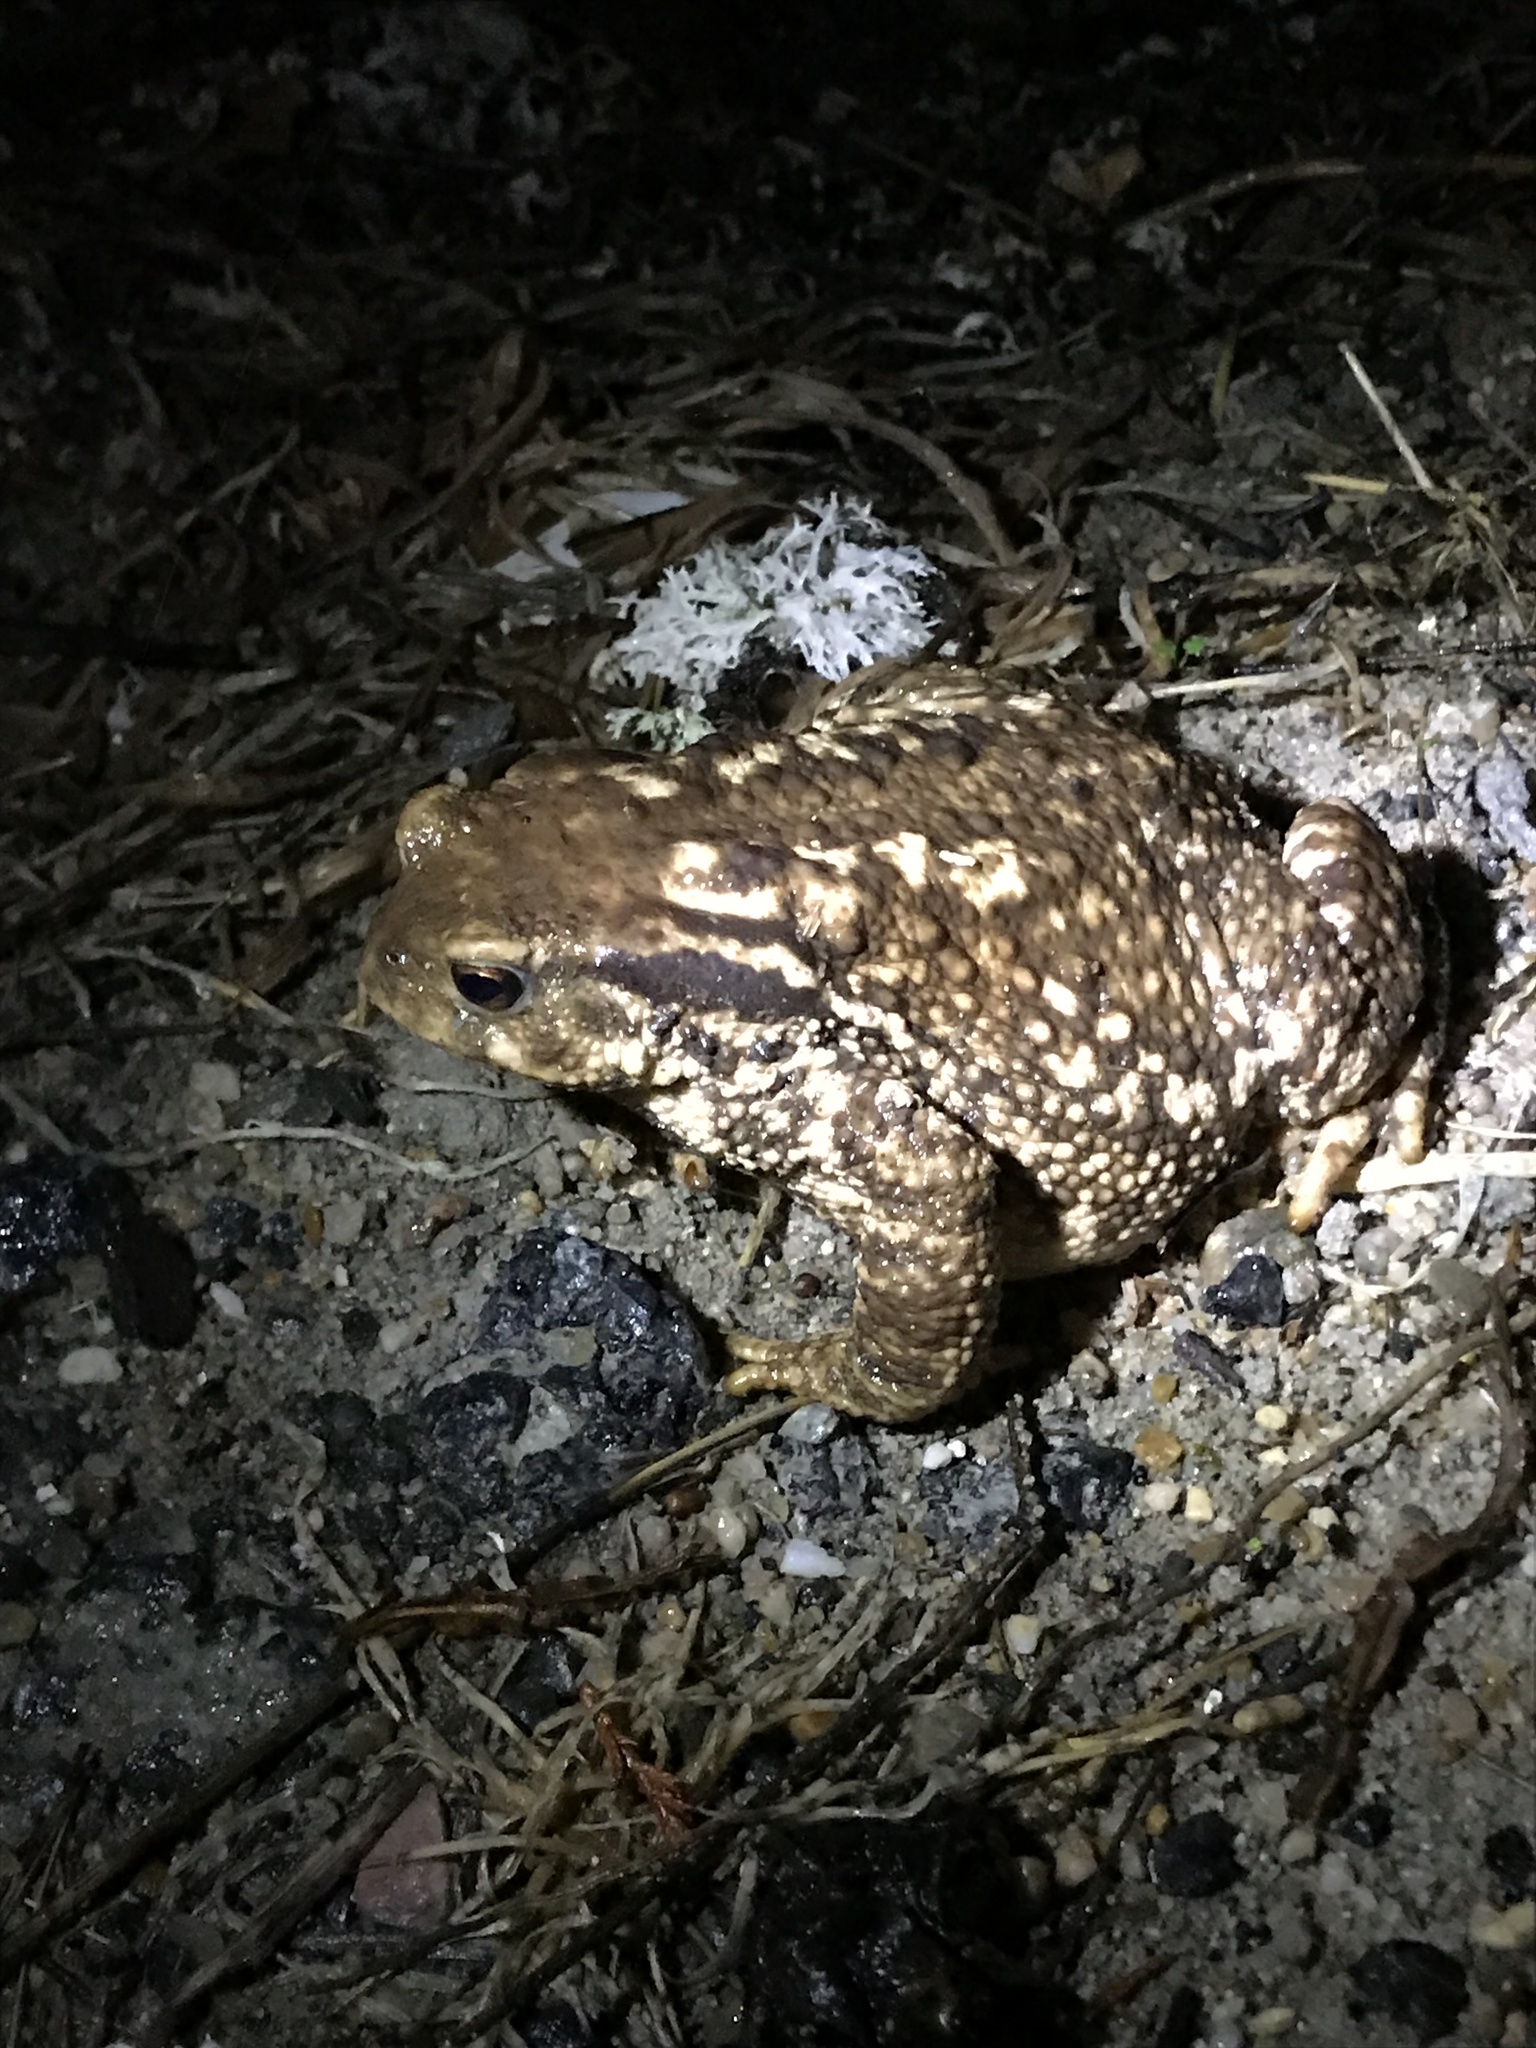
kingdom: Animalia
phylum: Chordata
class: Amphibia
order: Anura
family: Bufonidae
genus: Bufo
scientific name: Bufo spinosus
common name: Western common toad
